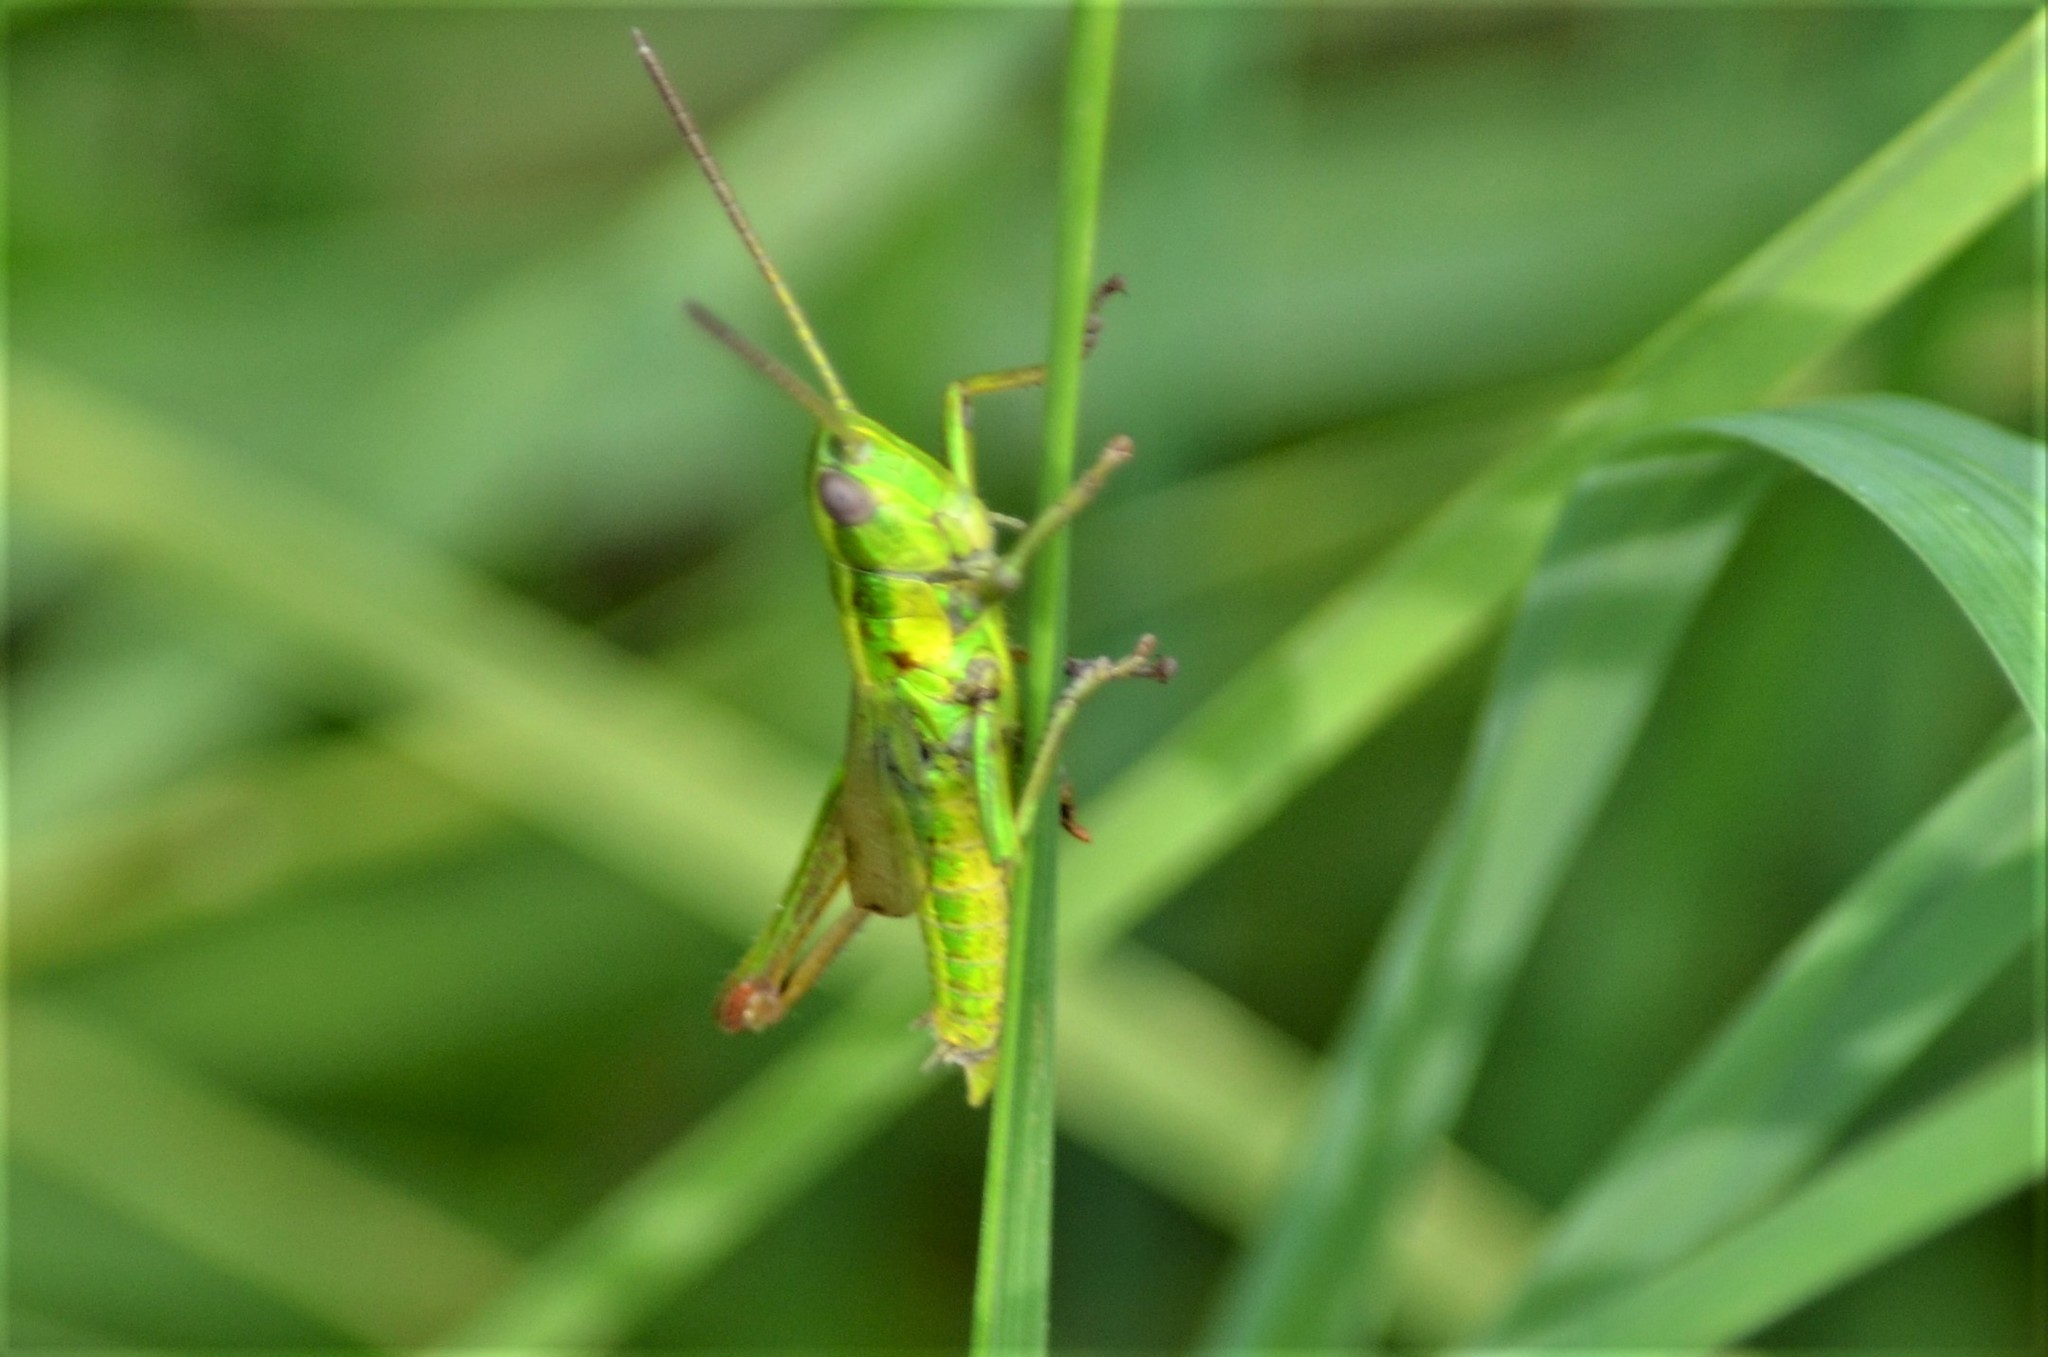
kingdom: Animalia
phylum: Arthropoda
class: Insecta
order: Orthoptera
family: Acrididae
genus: Euthystira
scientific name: Euthystira brachyptera
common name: Small gold grasshopper
